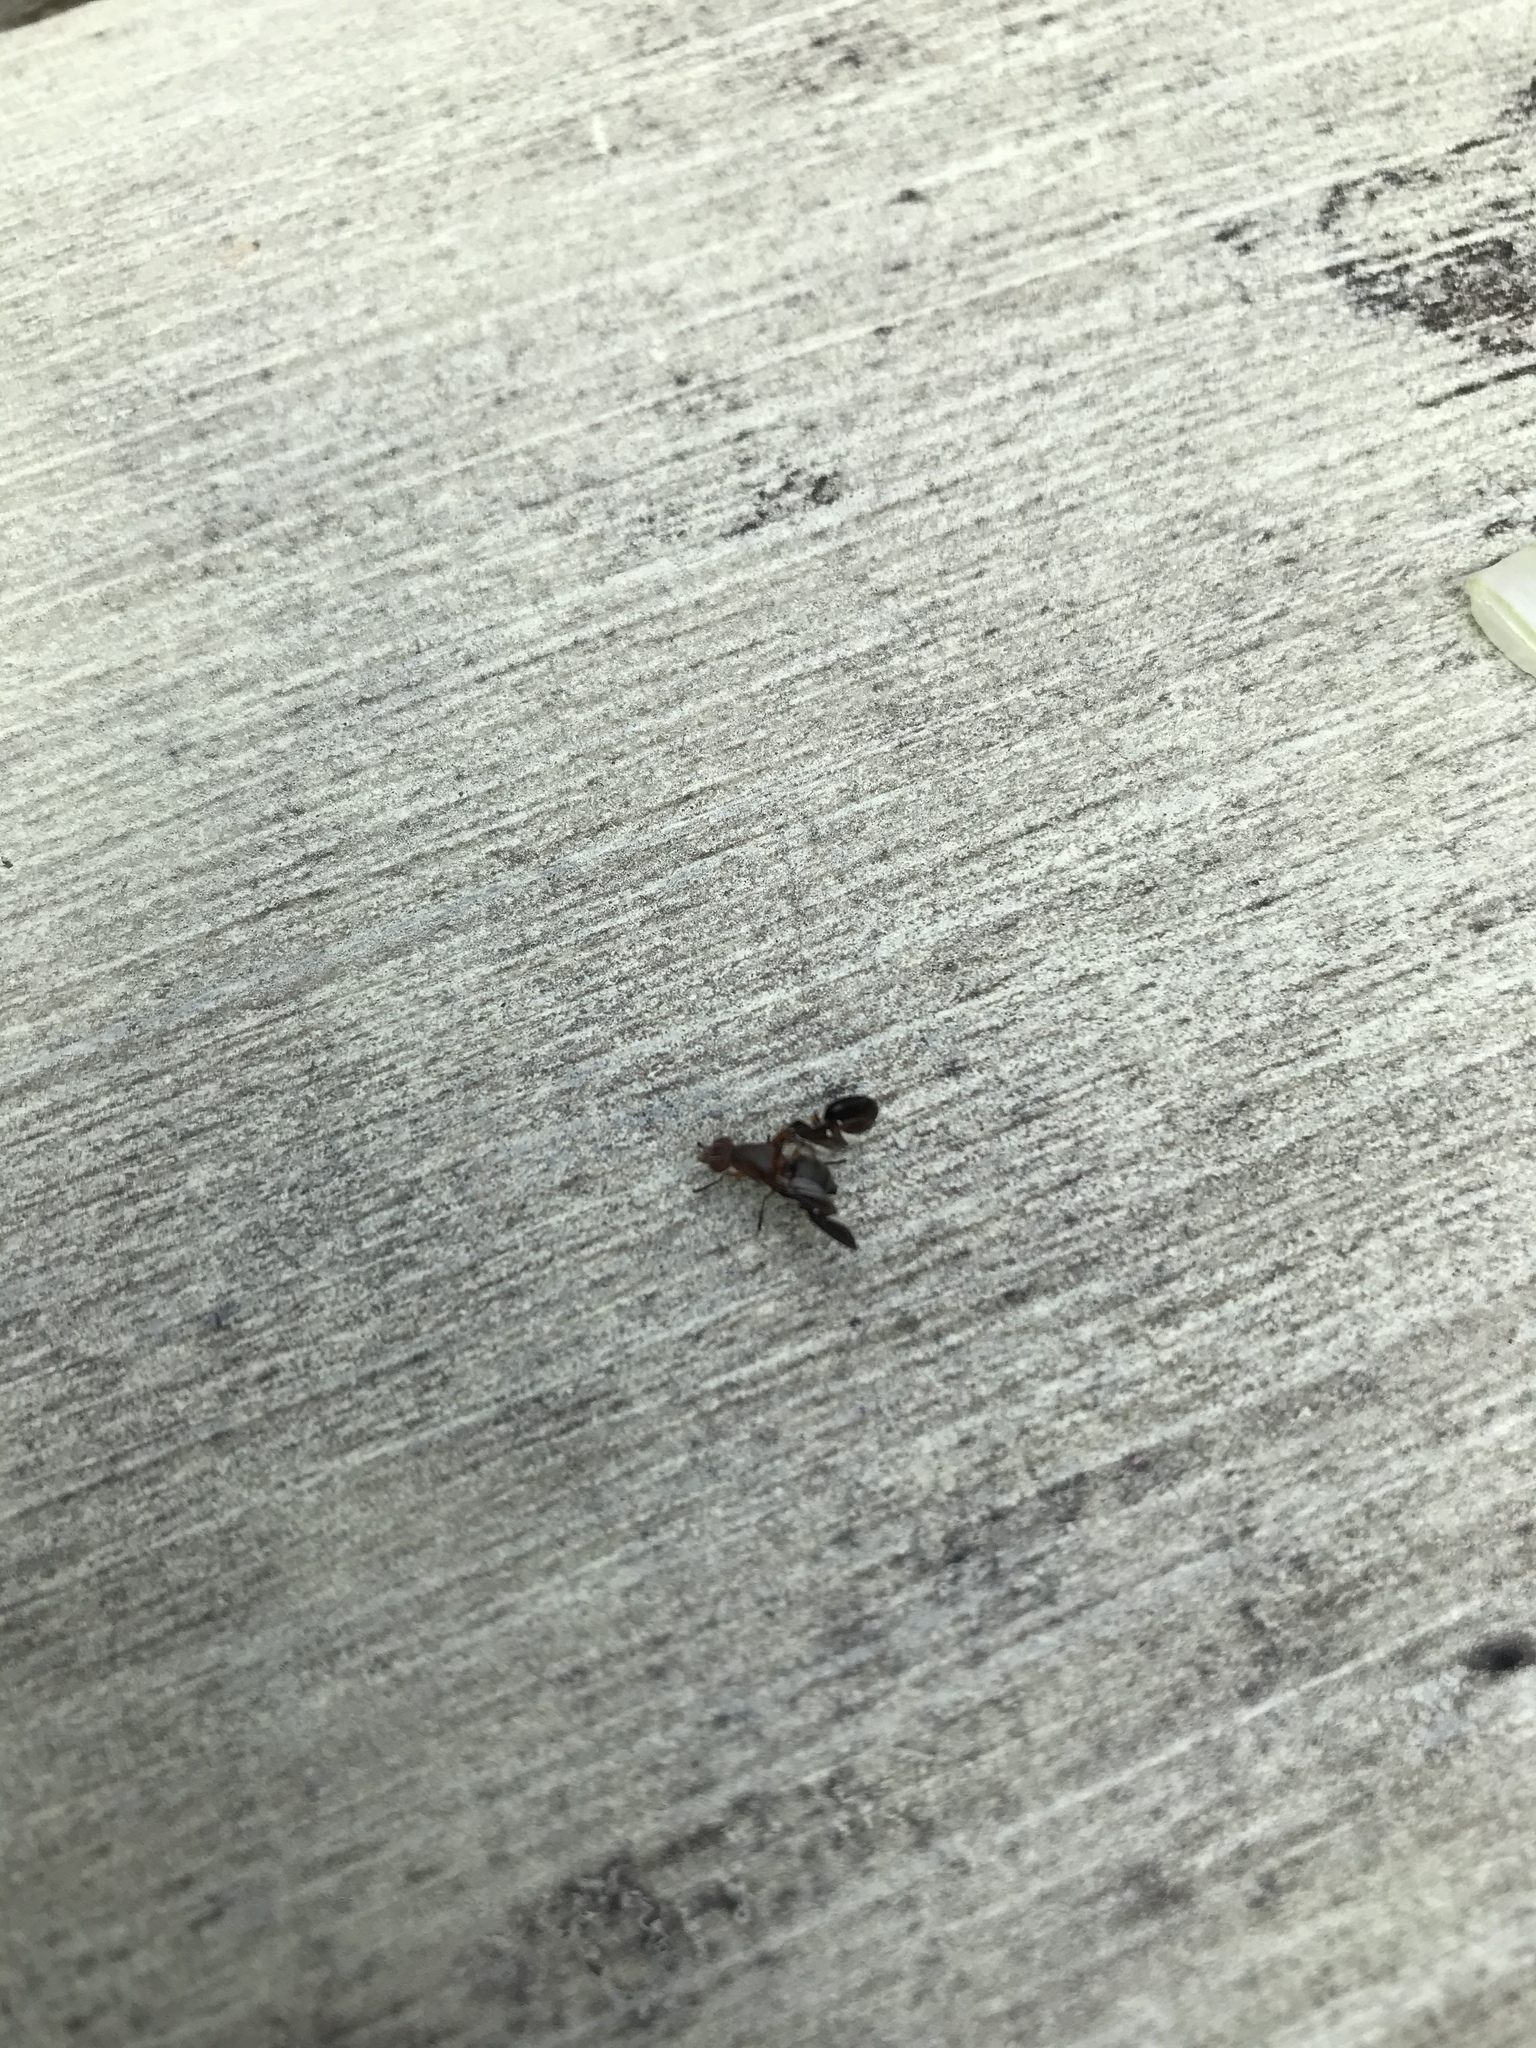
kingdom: Animalia
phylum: Arthropoda
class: Insecta
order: Diptera
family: Ulidiidae
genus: Delphinia
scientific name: Delphinia picta
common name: Common picture-winged fly
